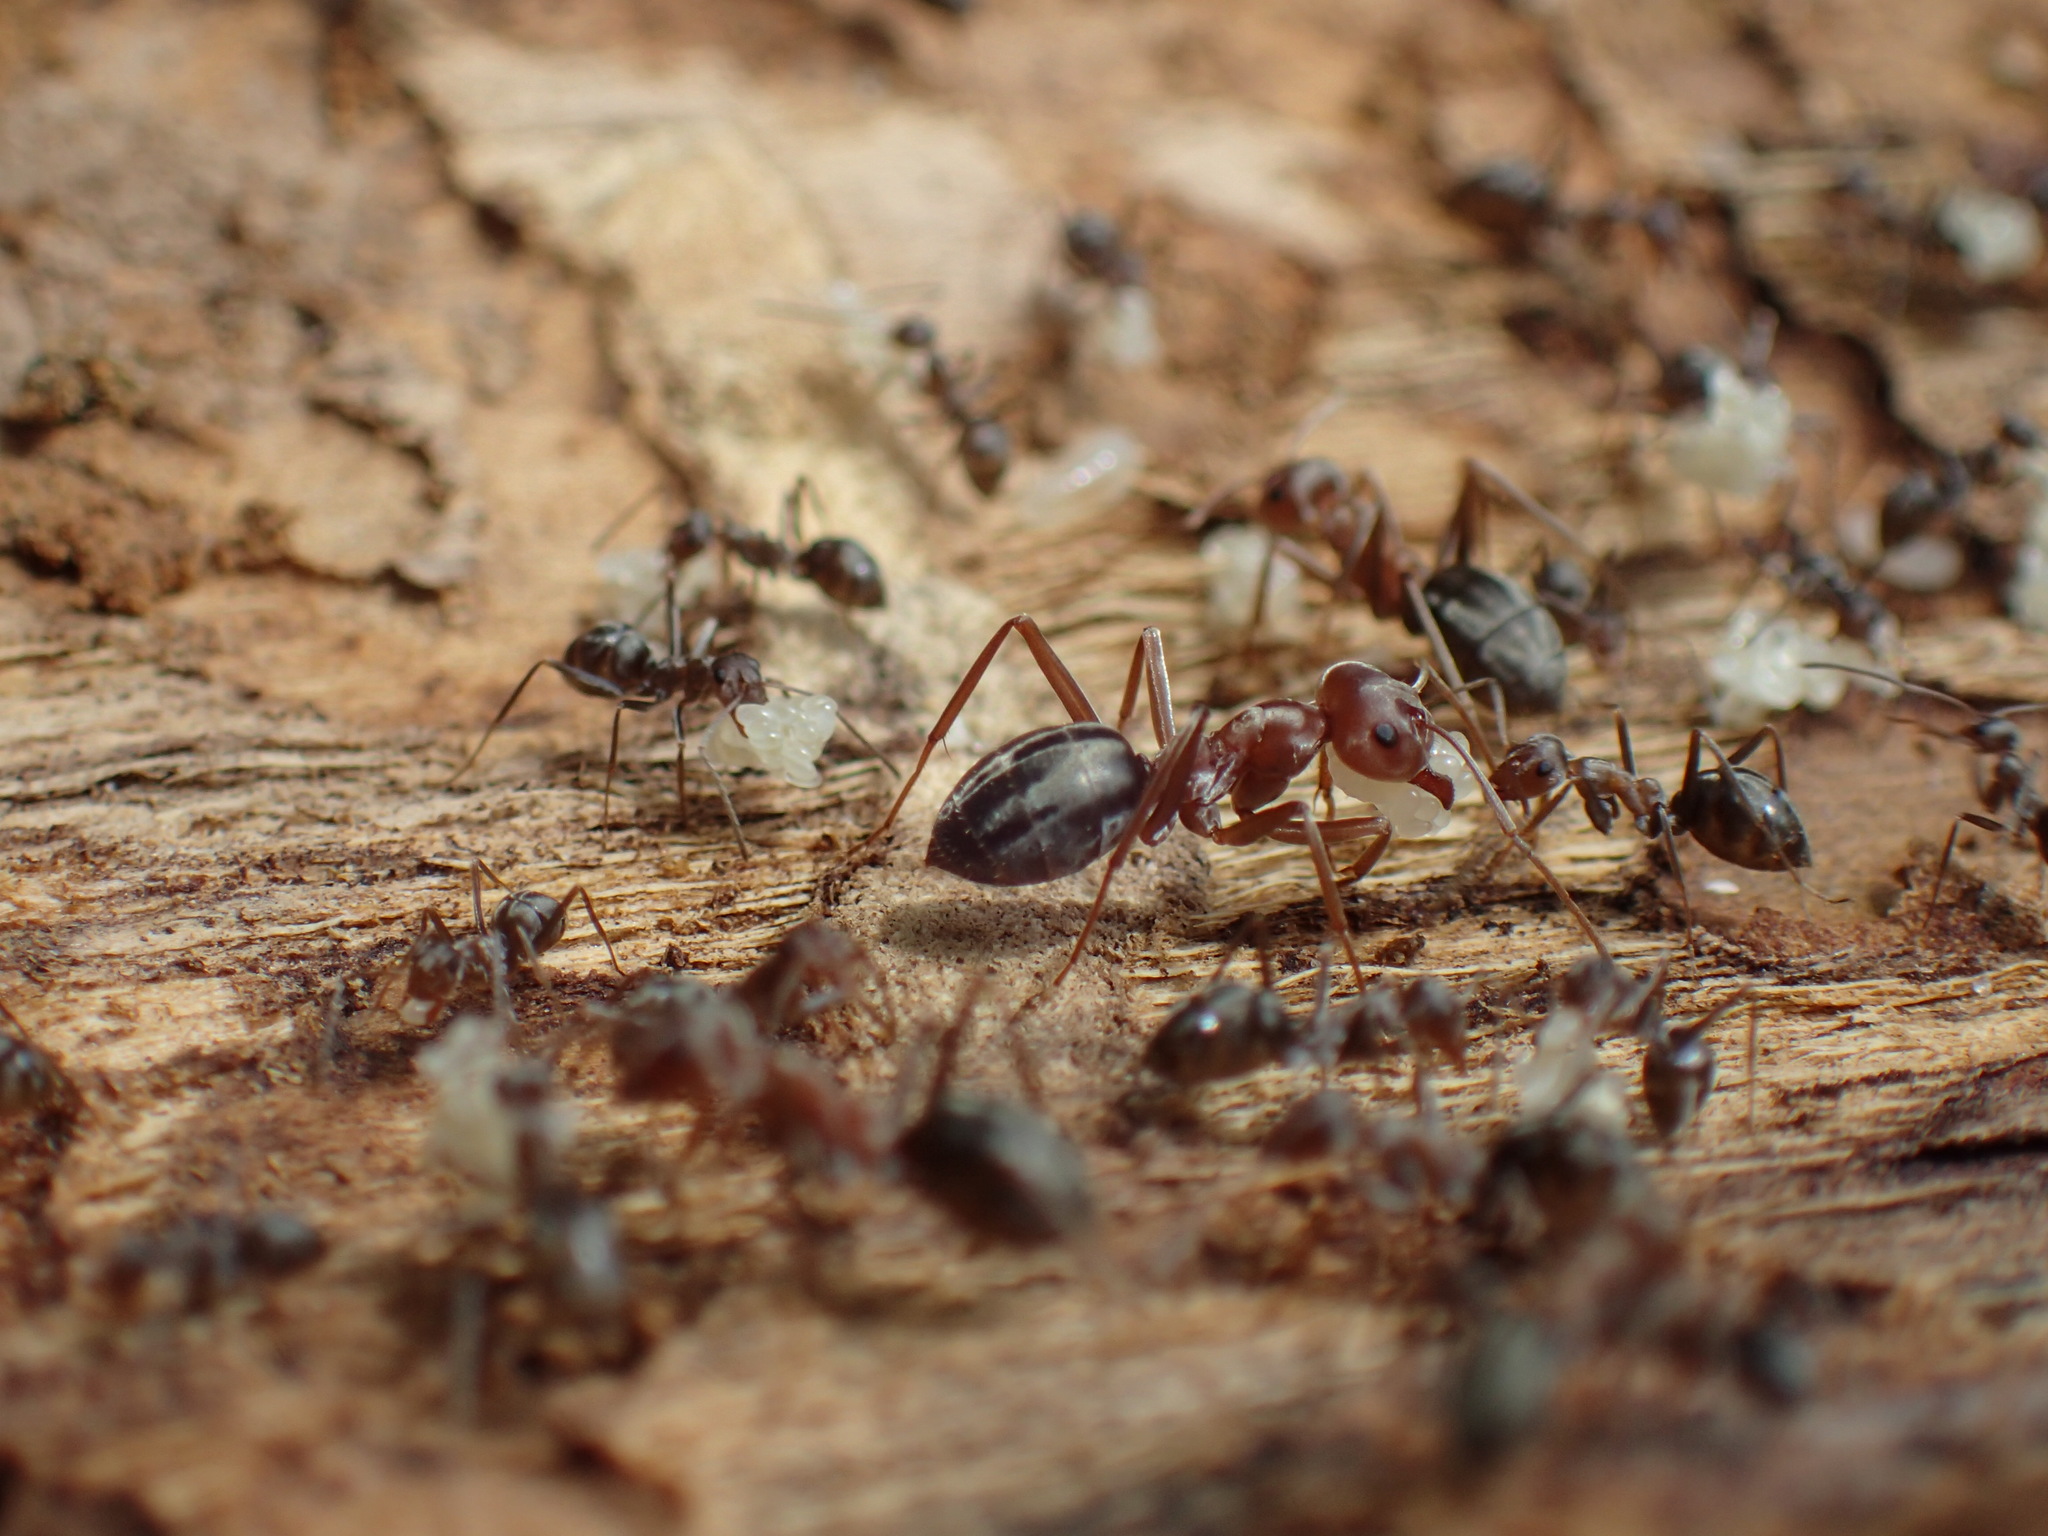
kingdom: Animalia
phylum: Arthropoda
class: Insecta
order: Hymenoptera
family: Formicidae
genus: Anoplolepis
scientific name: Anoplolepis custodiens
